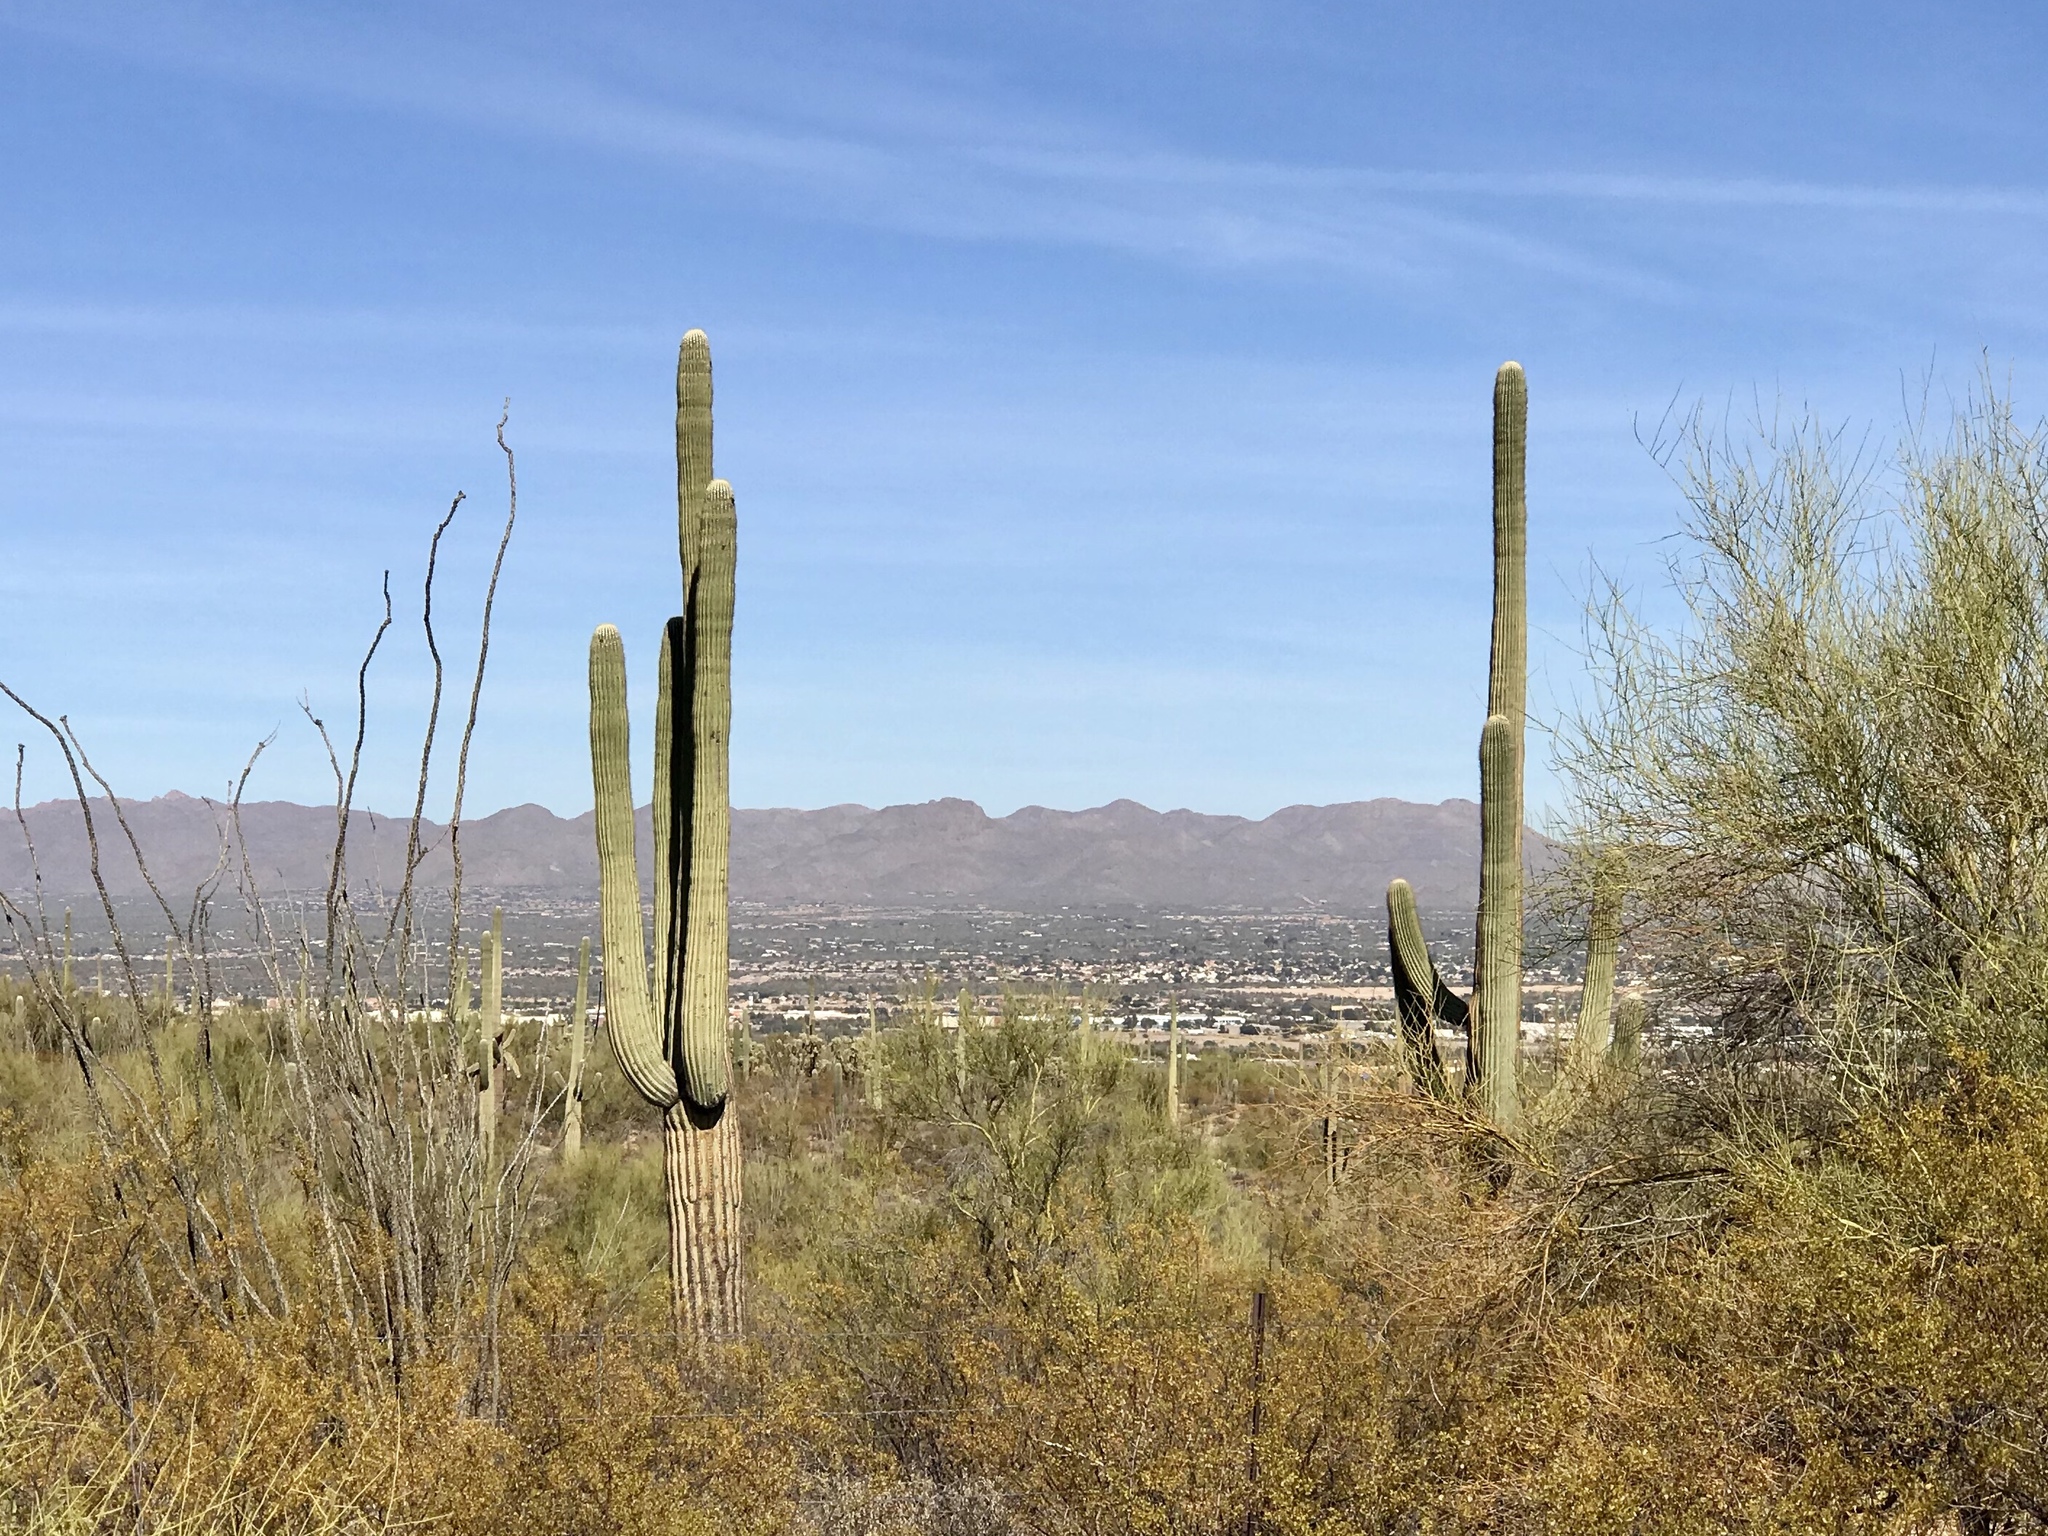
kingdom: Plantae
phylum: Tracheophyta
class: Magnoliopsida
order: Caryophyllales
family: Cactaceae
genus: Carnegiea
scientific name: Carnegiea gigantea
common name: Saguaro
